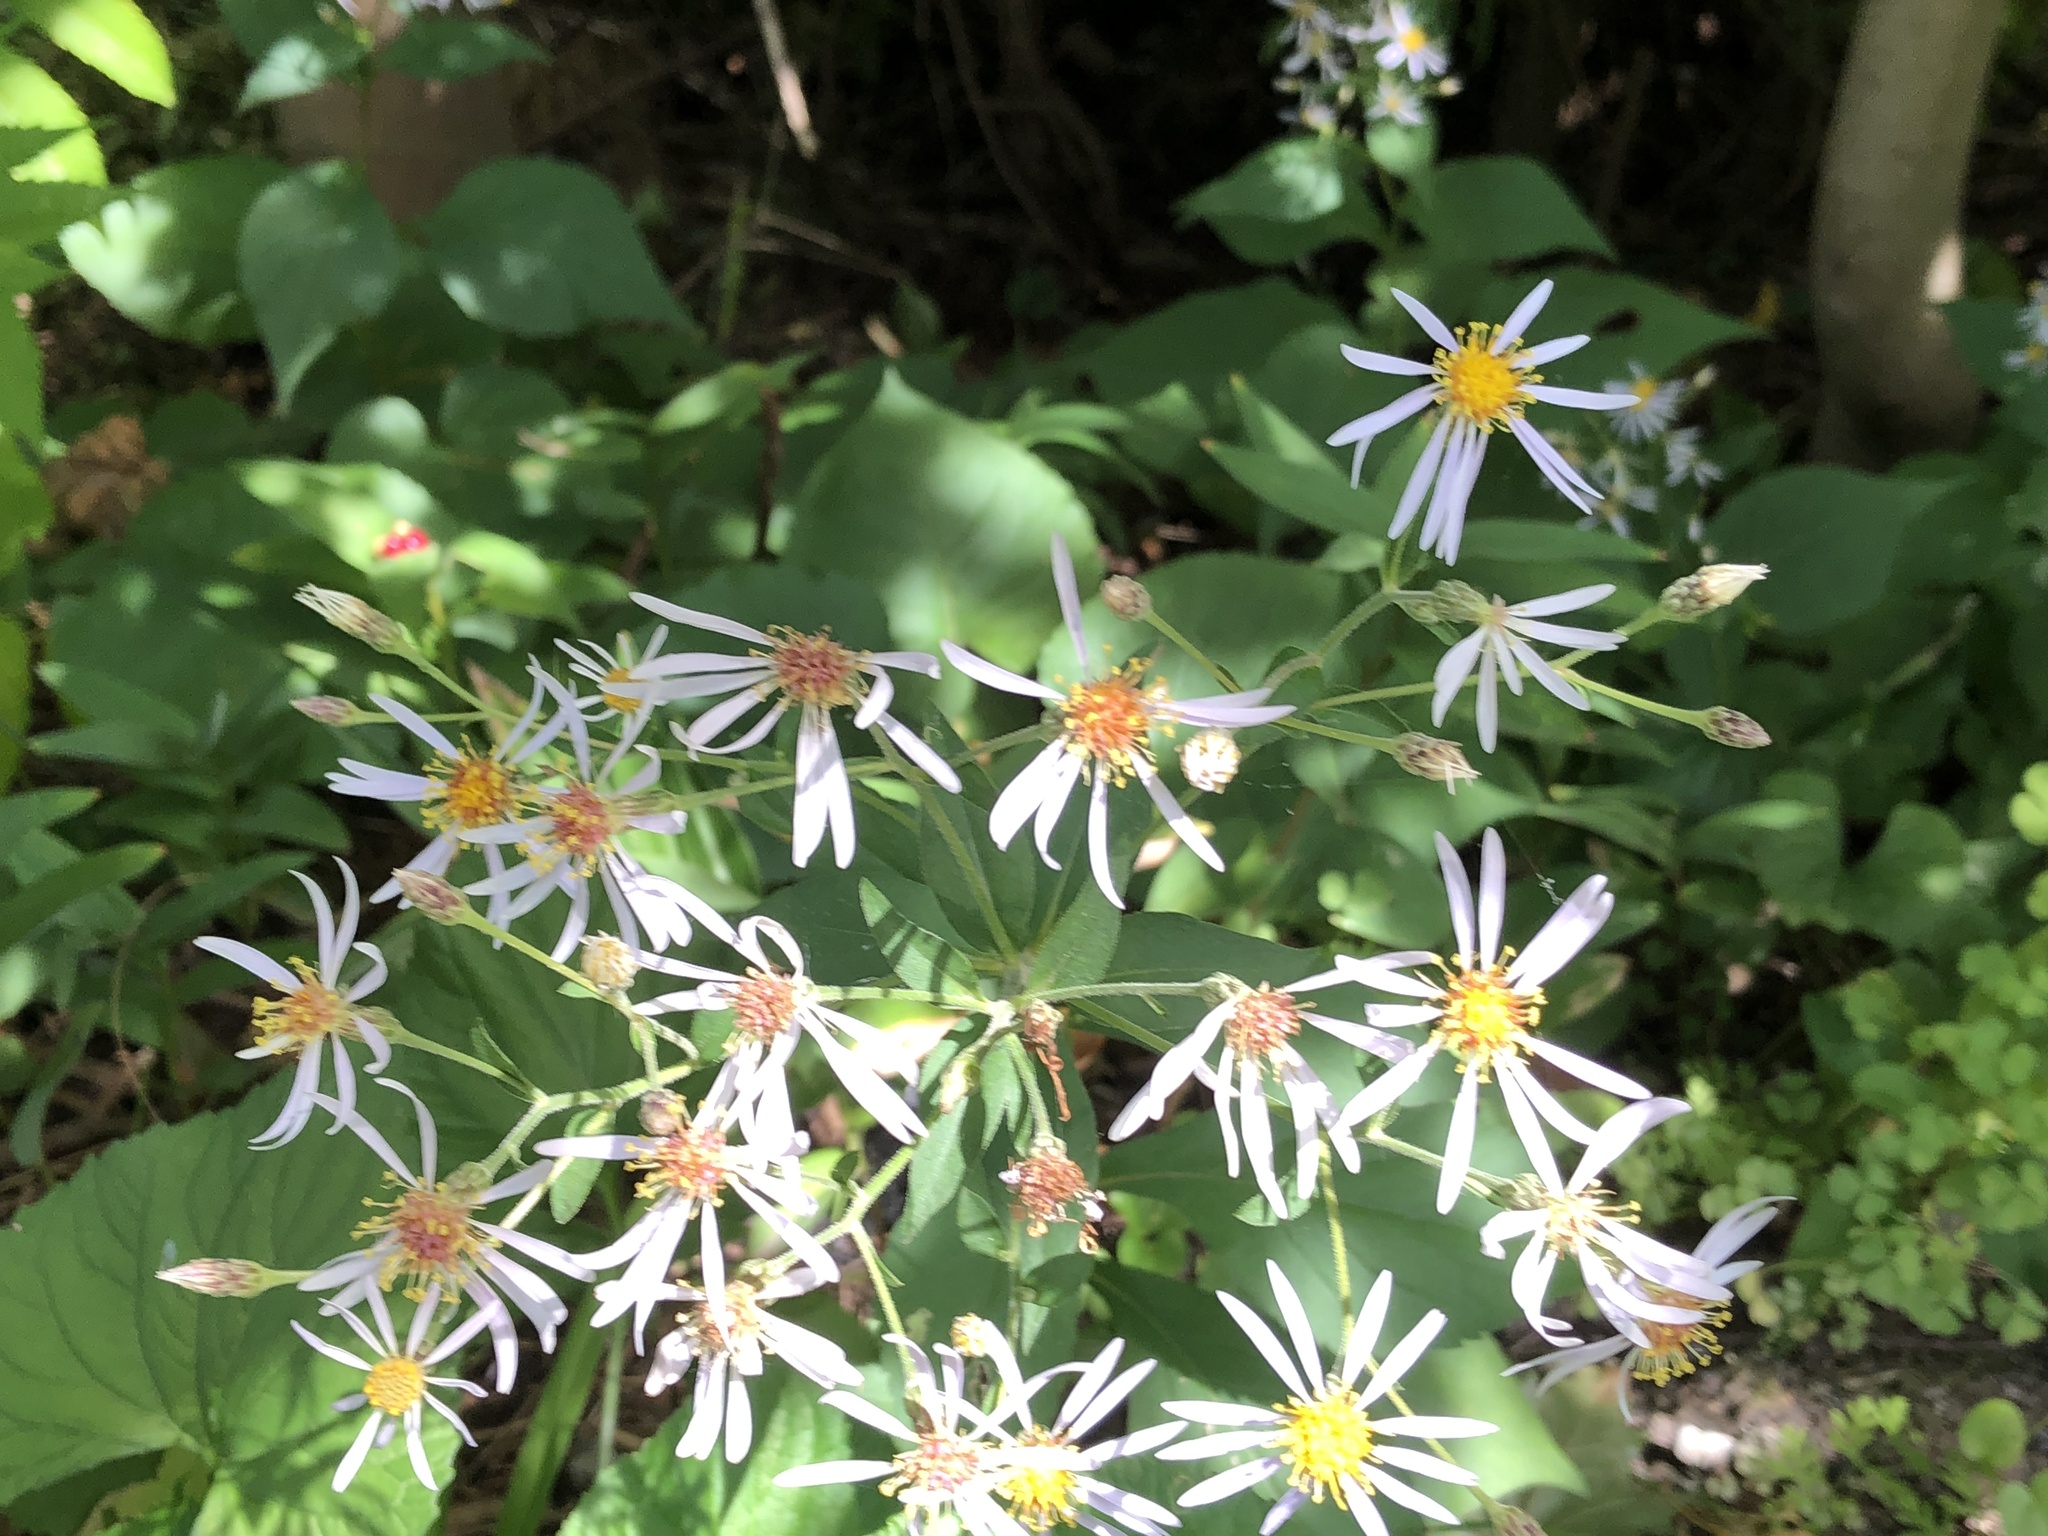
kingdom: Plantae
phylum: Tracheophyta
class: Magnoliopsida
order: Asterales
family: Asteraceae
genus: Eurybia
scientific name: Eurybia macrophylla
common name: Big-leaved aster
